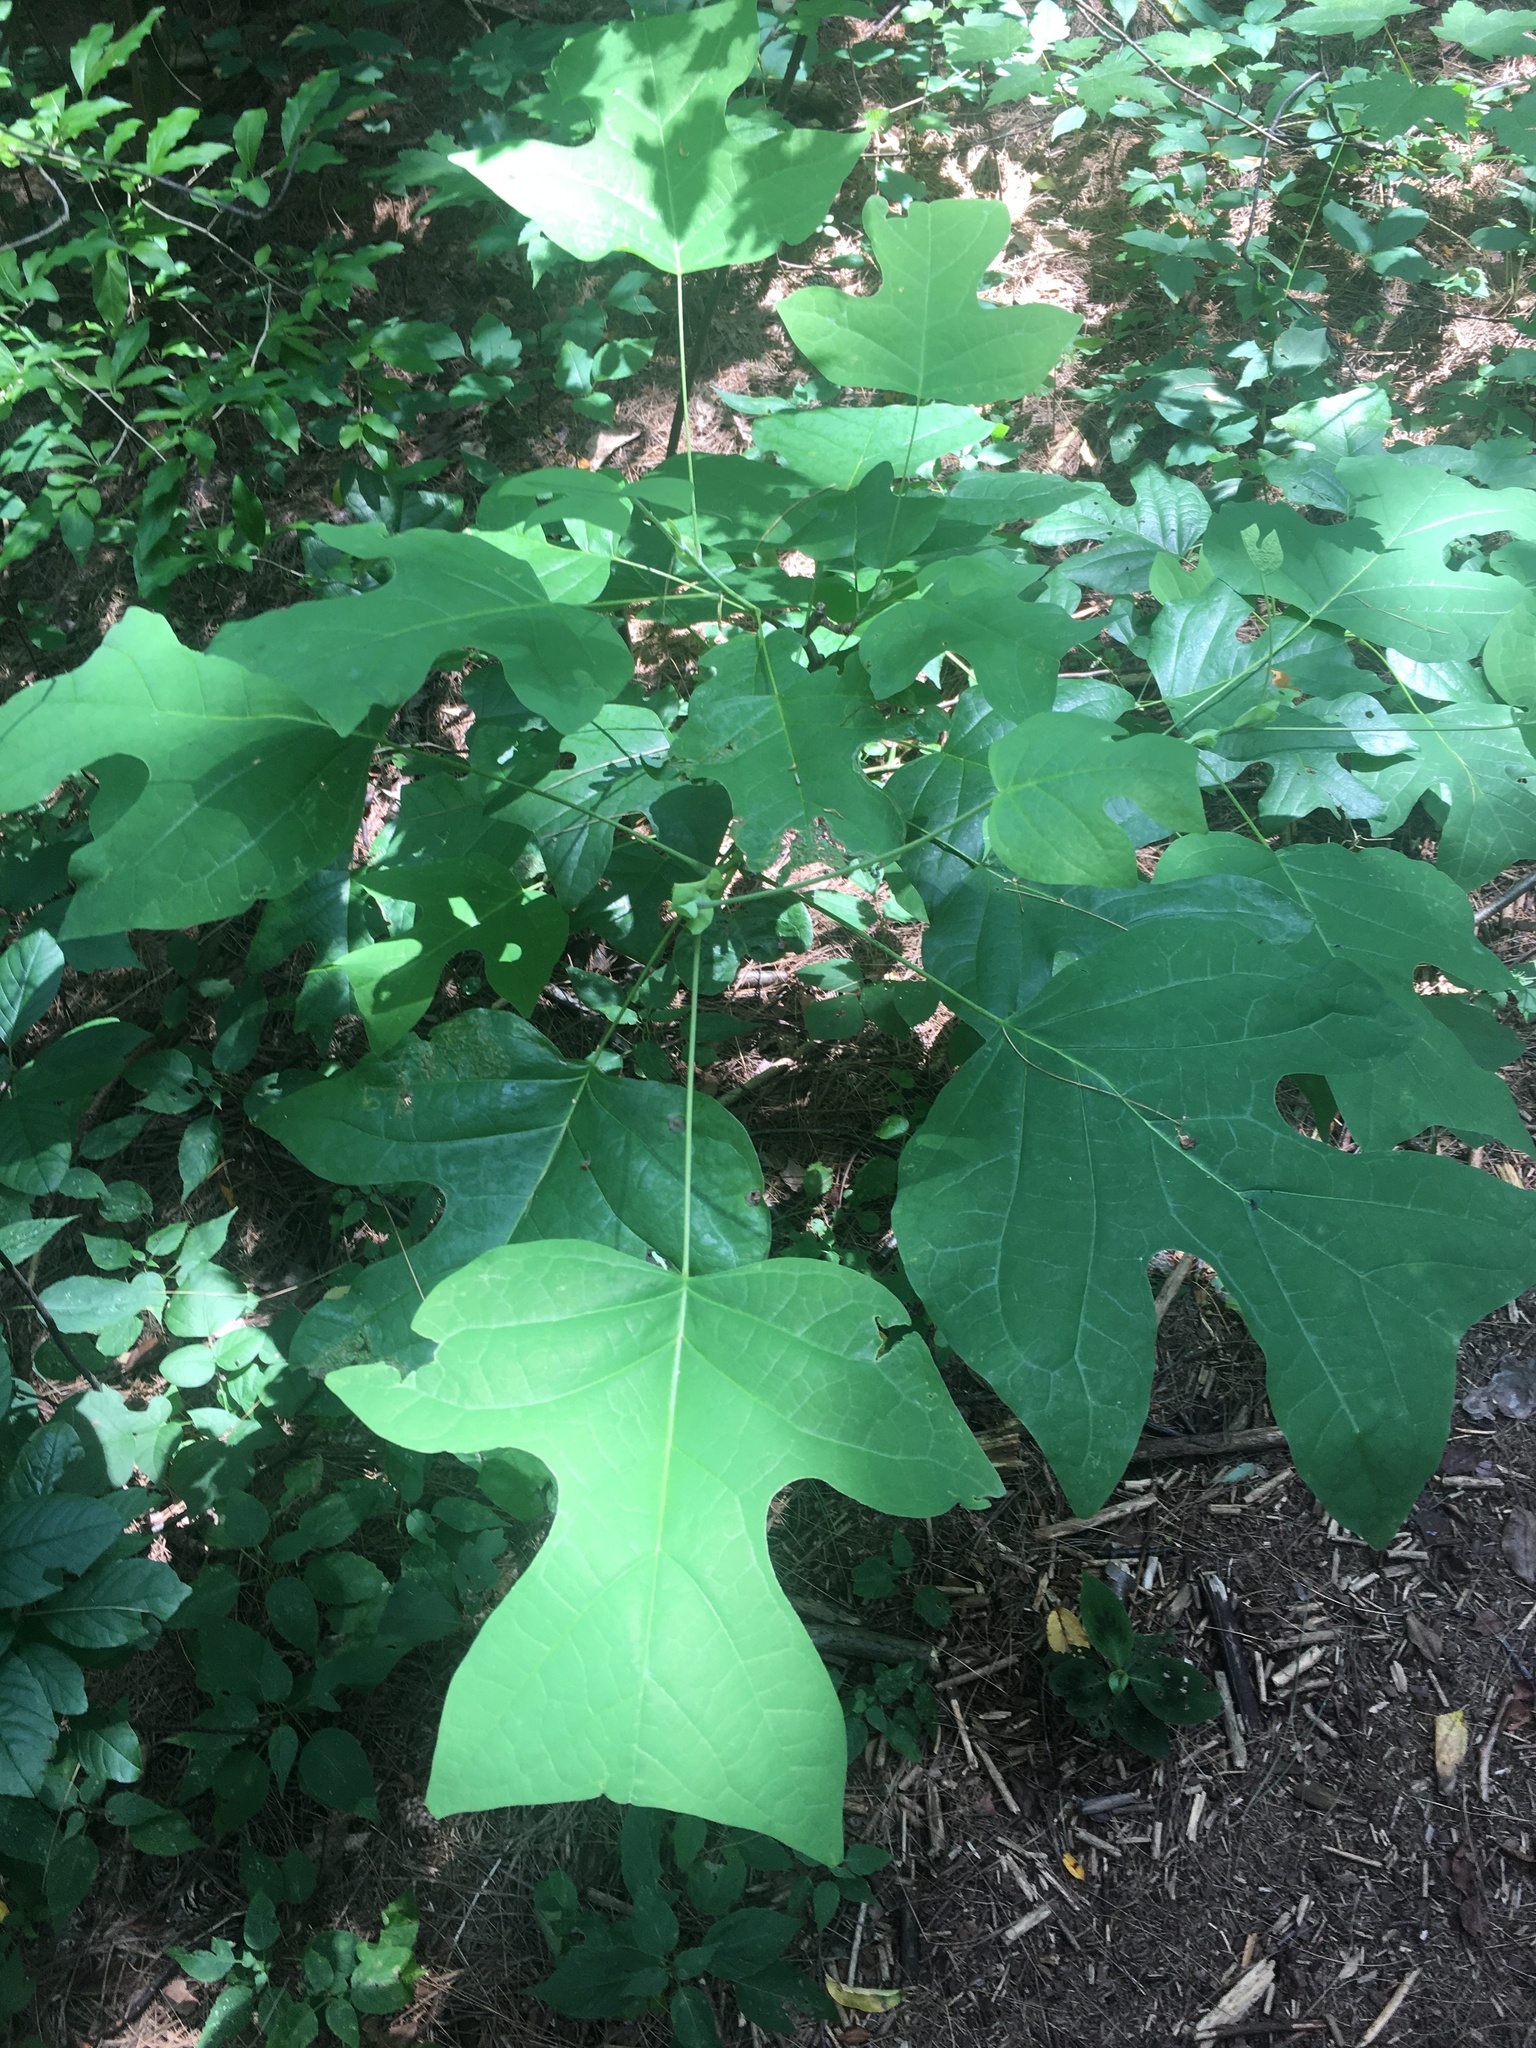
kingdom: Plantae
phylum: Tracheophyta
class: Magnoliopsida
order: Magnoliales
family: Magnoliaceae
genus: Liriodendron
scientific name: Liriodendron tulipifera
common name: Tulip tree
